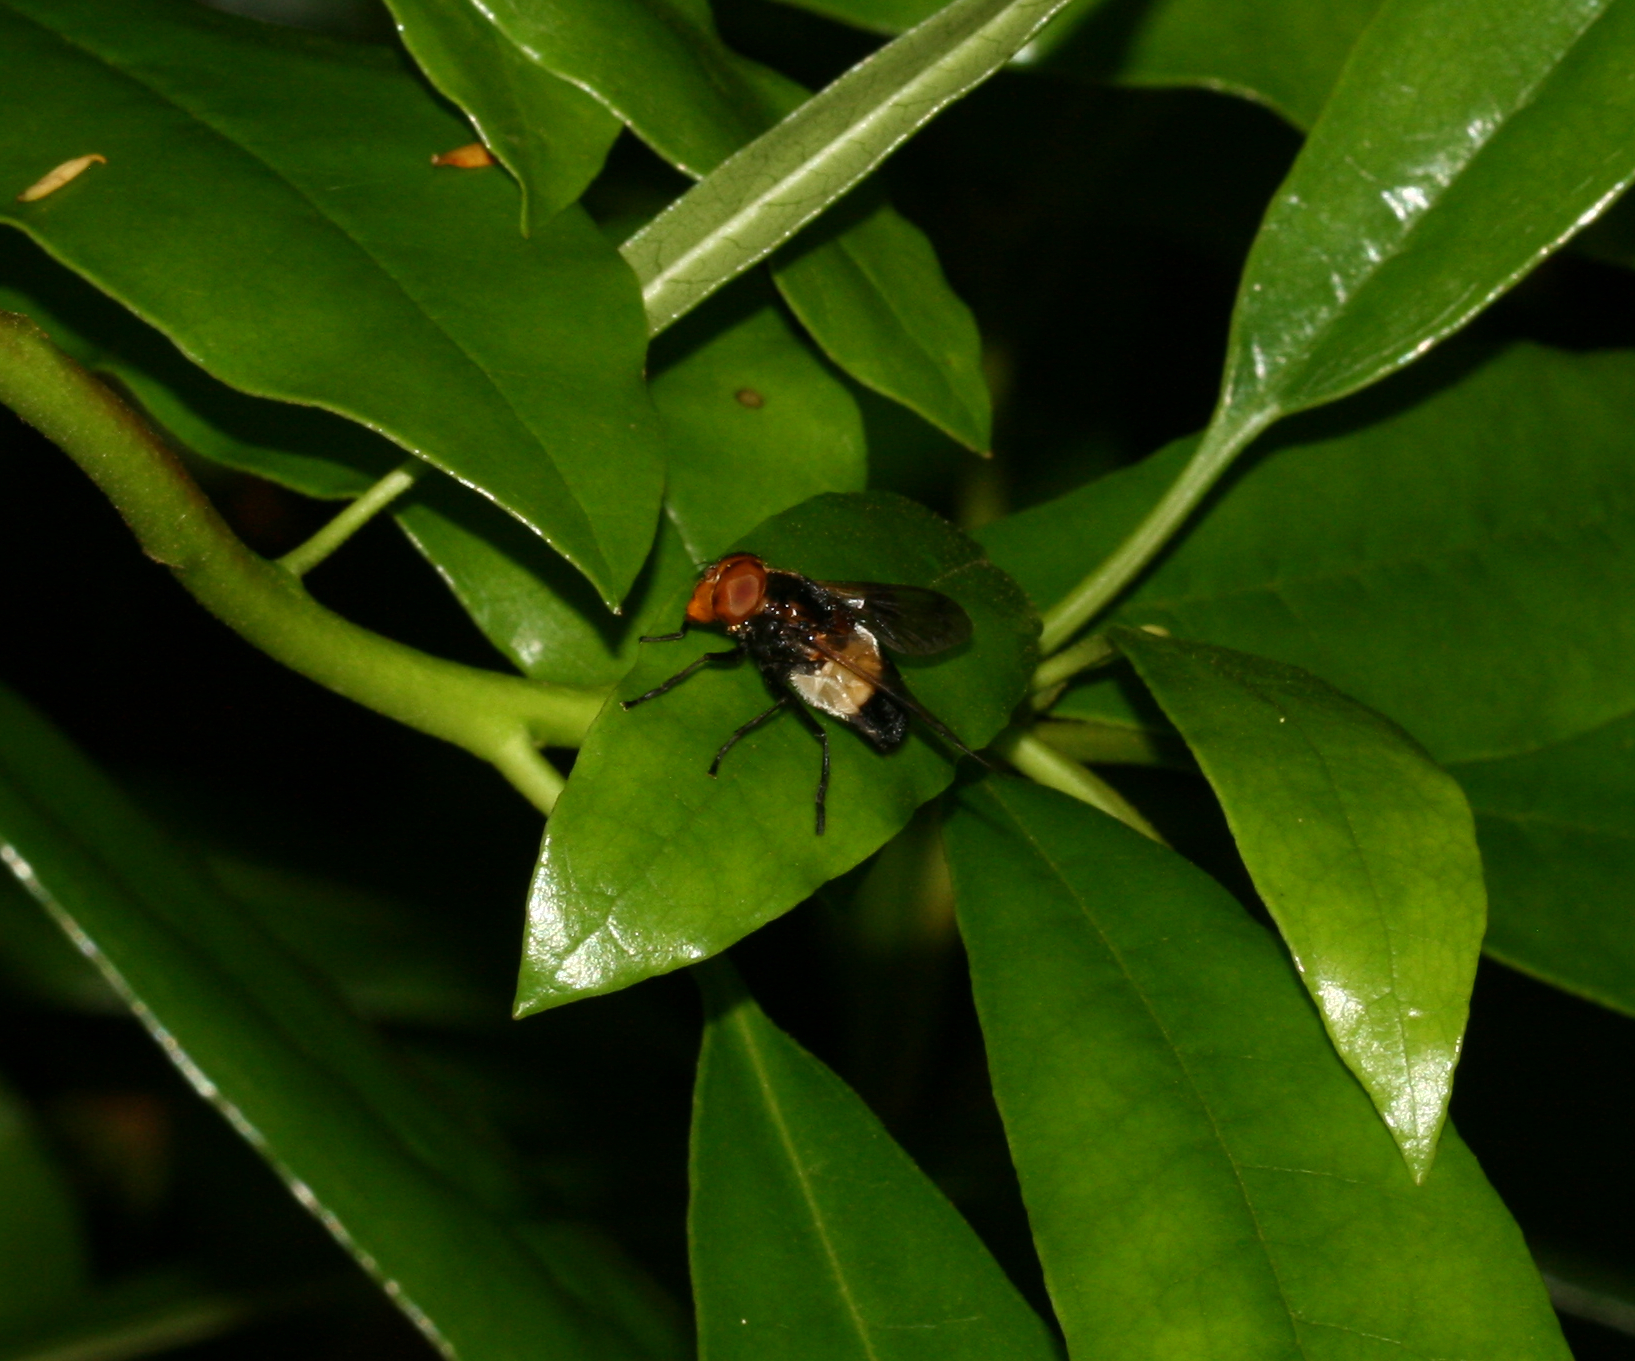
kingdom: Animalia
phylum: Arthropoda
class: Insecta
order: Diptera
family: Syrphidae
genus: Volucella
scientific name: Volucella pellucens
